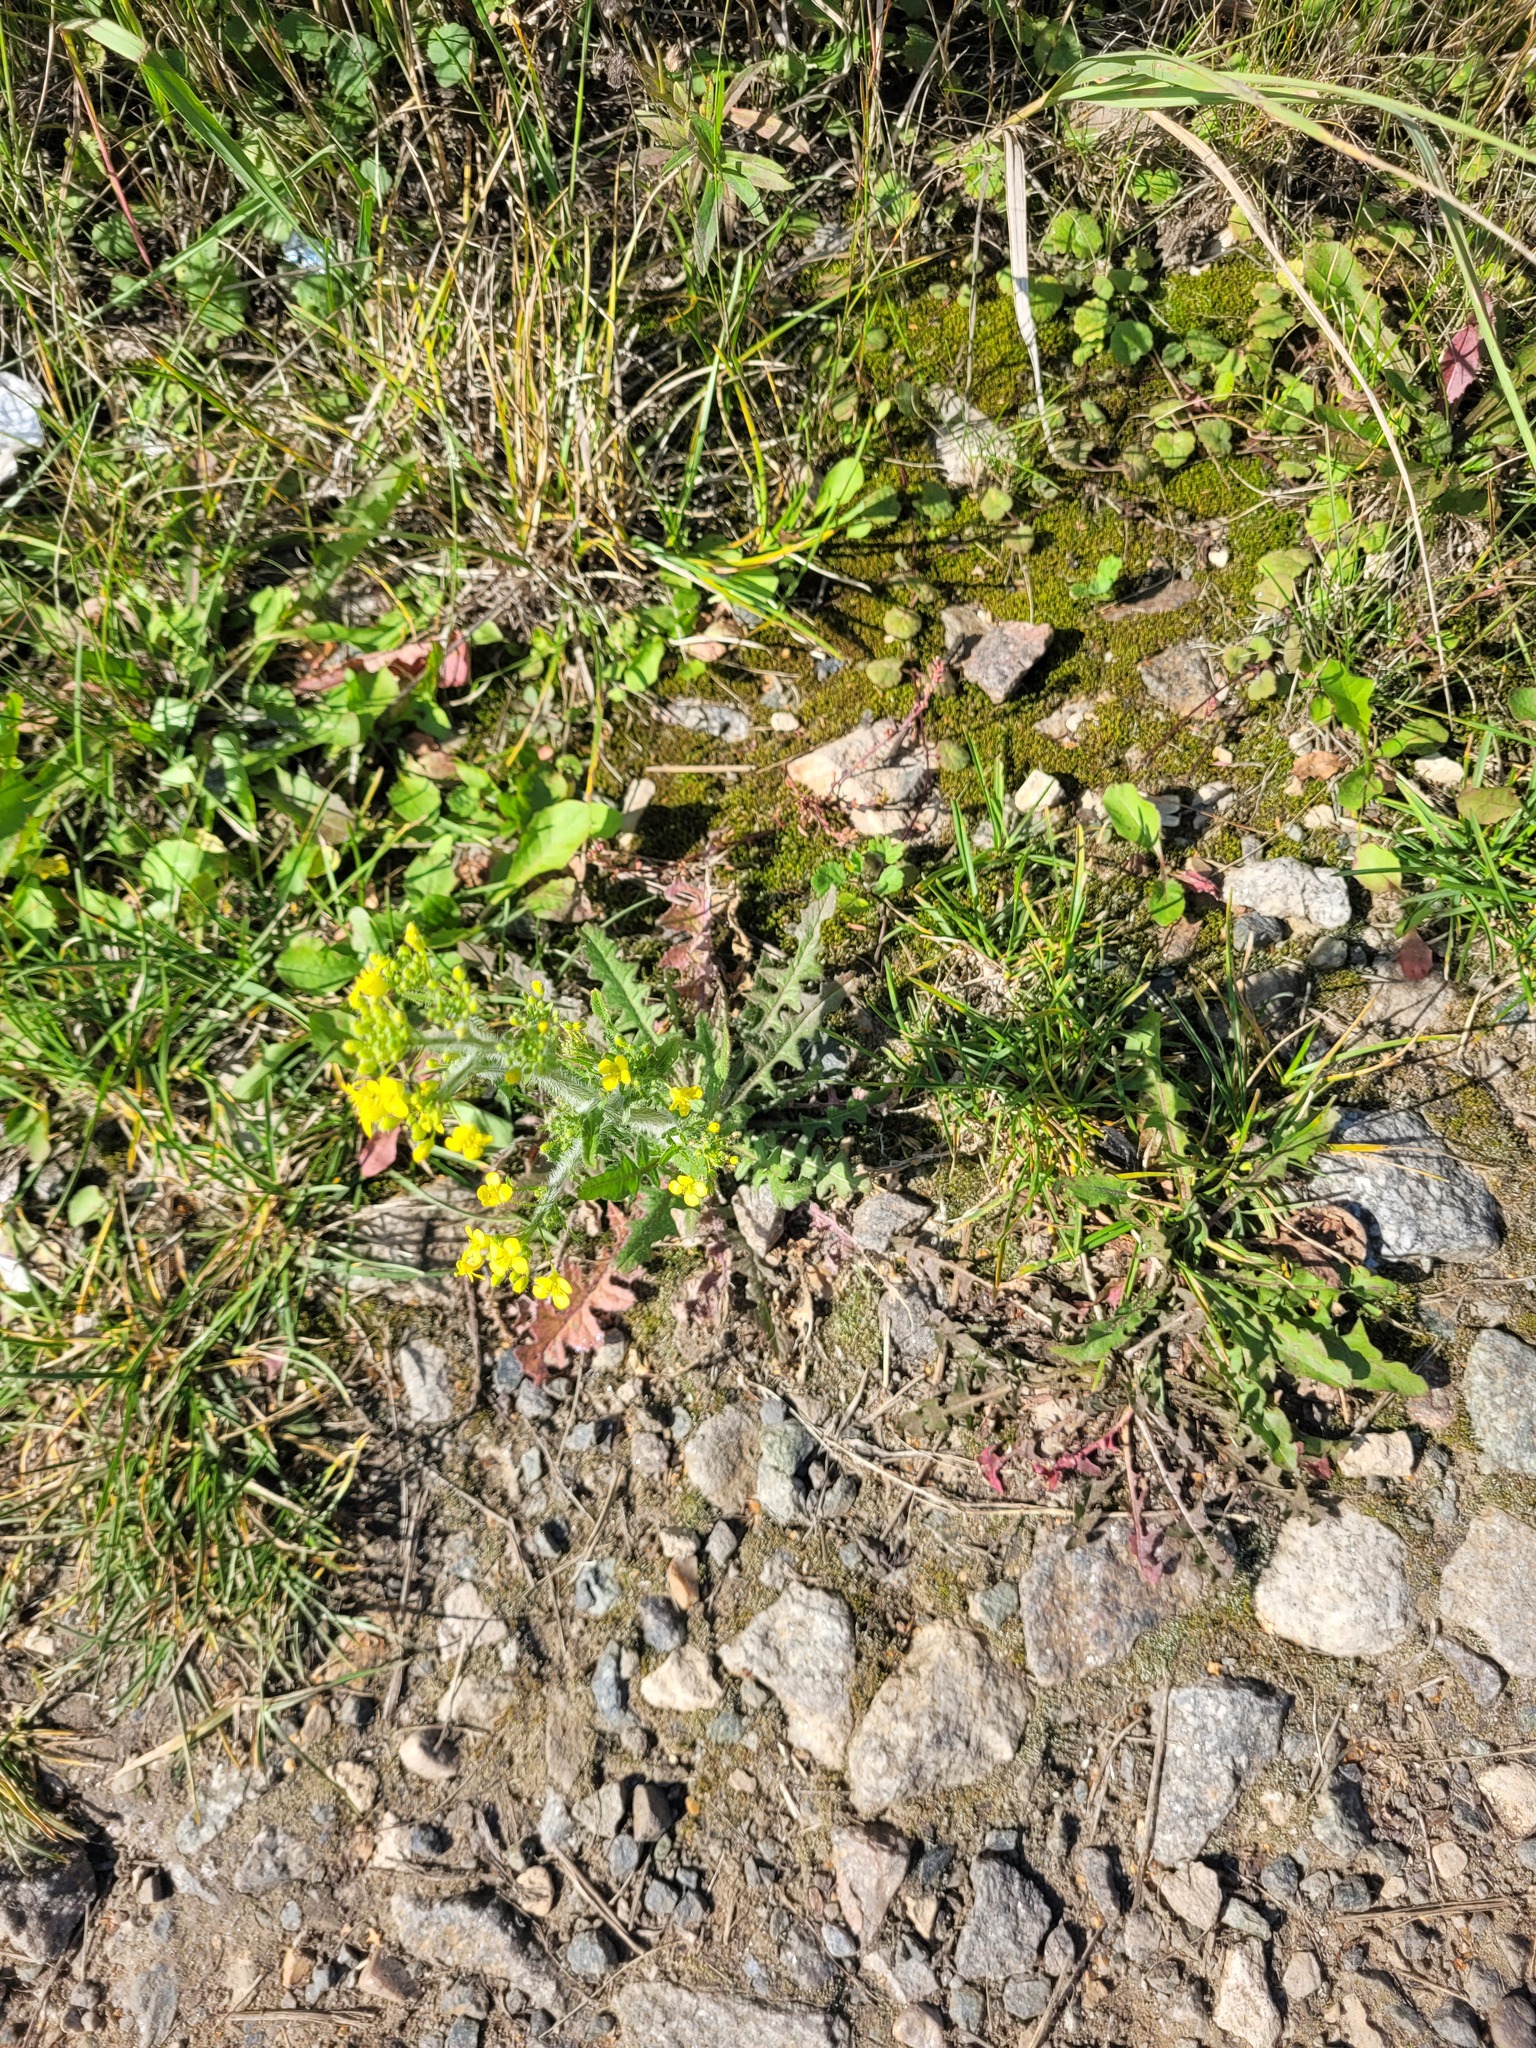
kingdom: Plantae
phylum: Tracheophyta
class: Magnoliopsida
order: Brassicales
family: Brassicaceae
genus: Sisymbrium
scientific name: Sisymbrium loeselii
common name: False london-rocket
